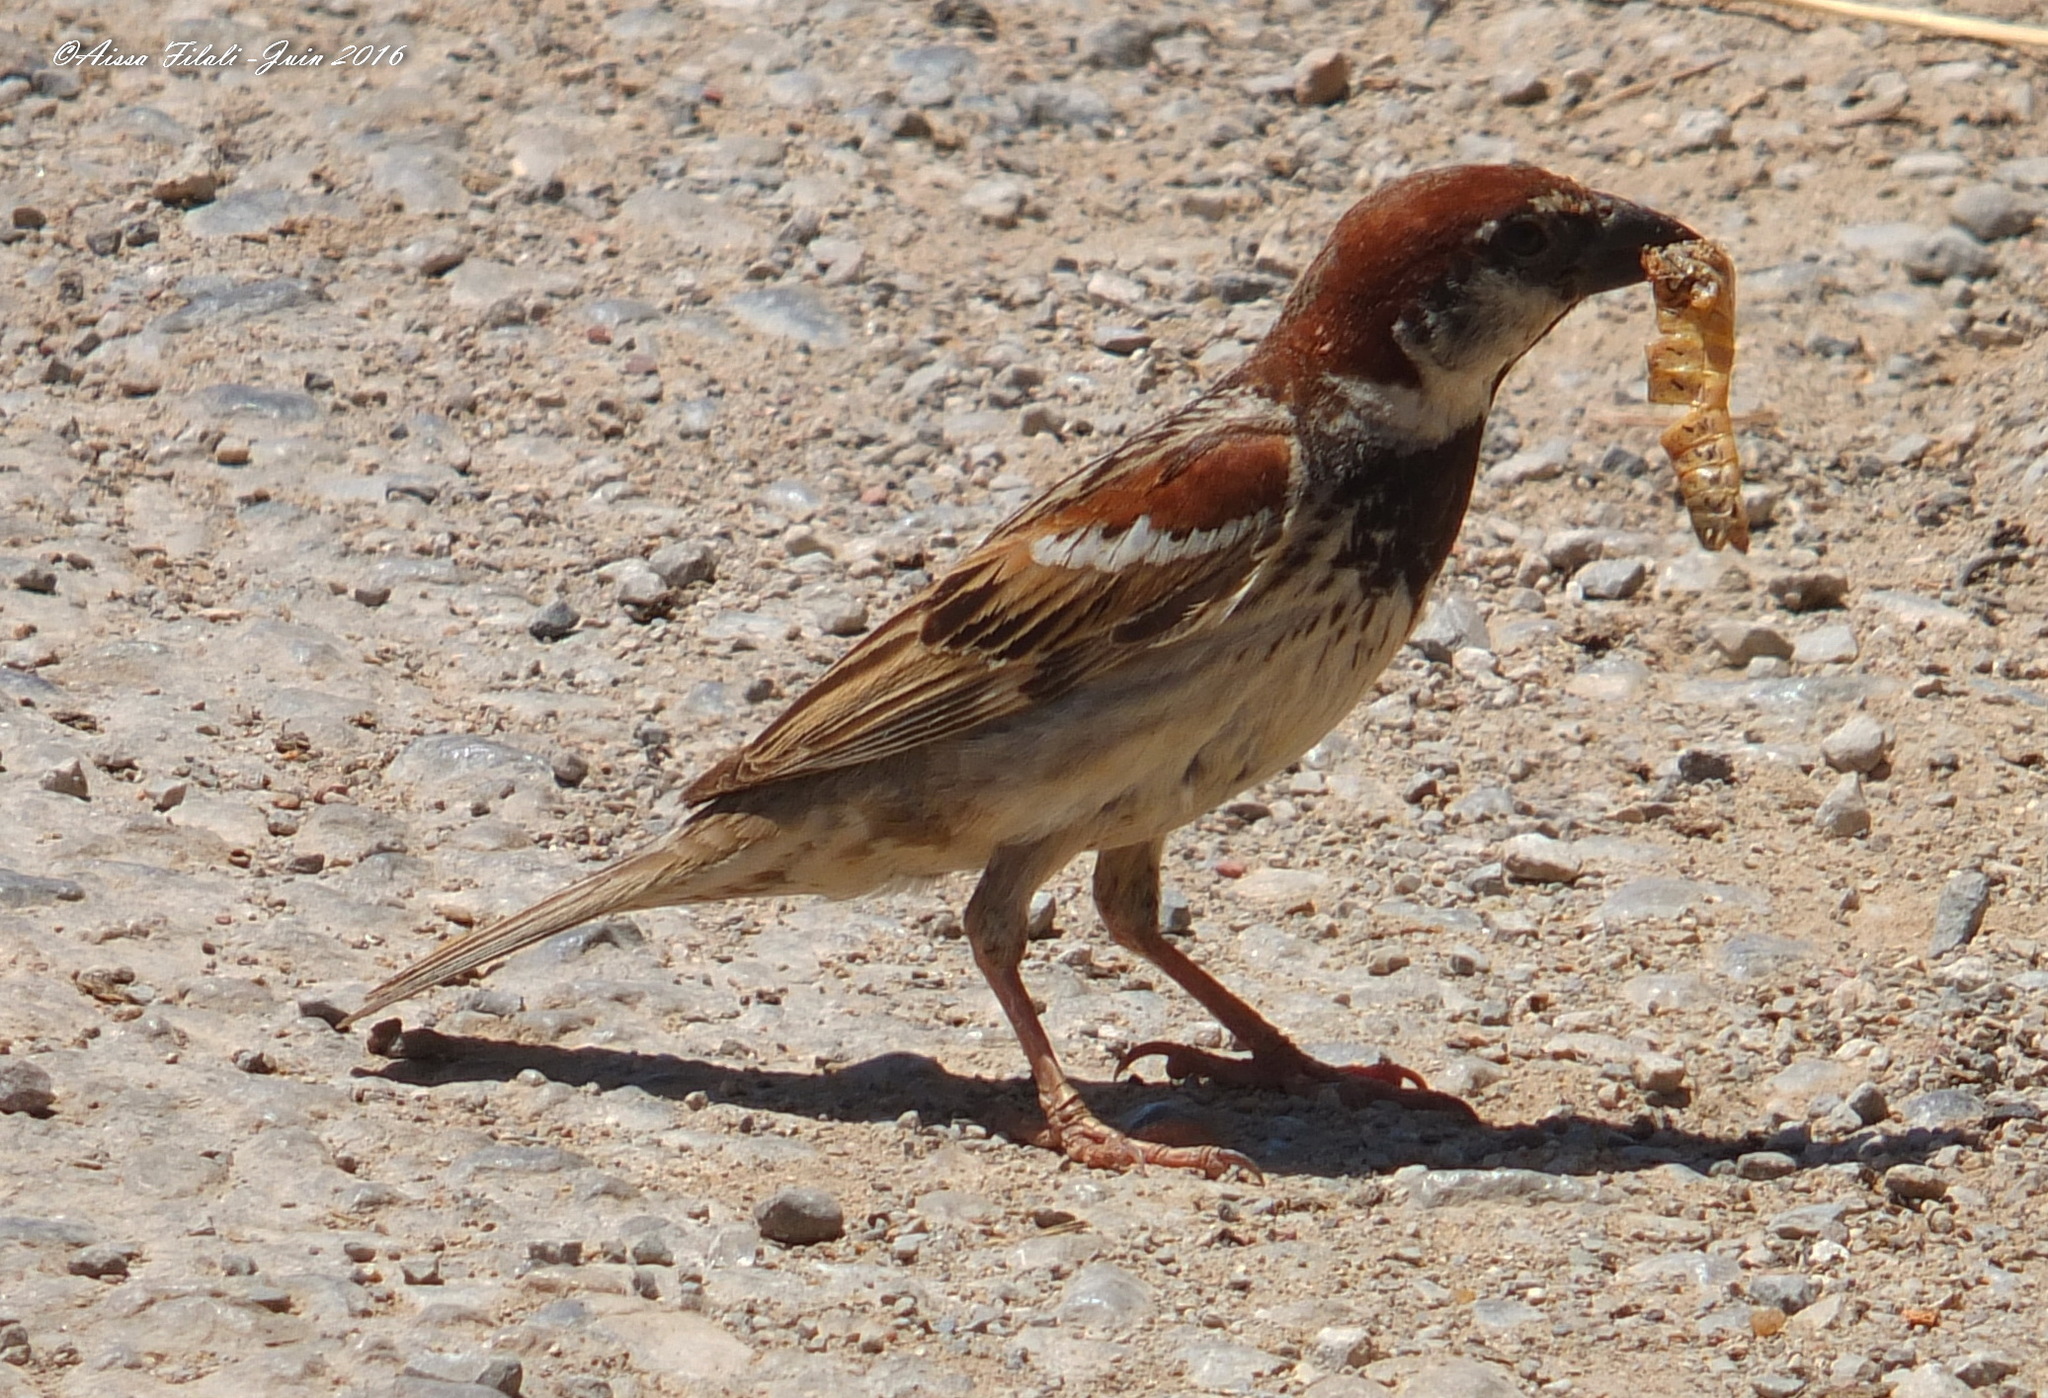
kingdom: Animalia
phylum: Chordata
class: Aves
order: Passeriformes
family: Passeridae
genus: Passer
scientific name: Passer domesticus
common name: House sparrow
